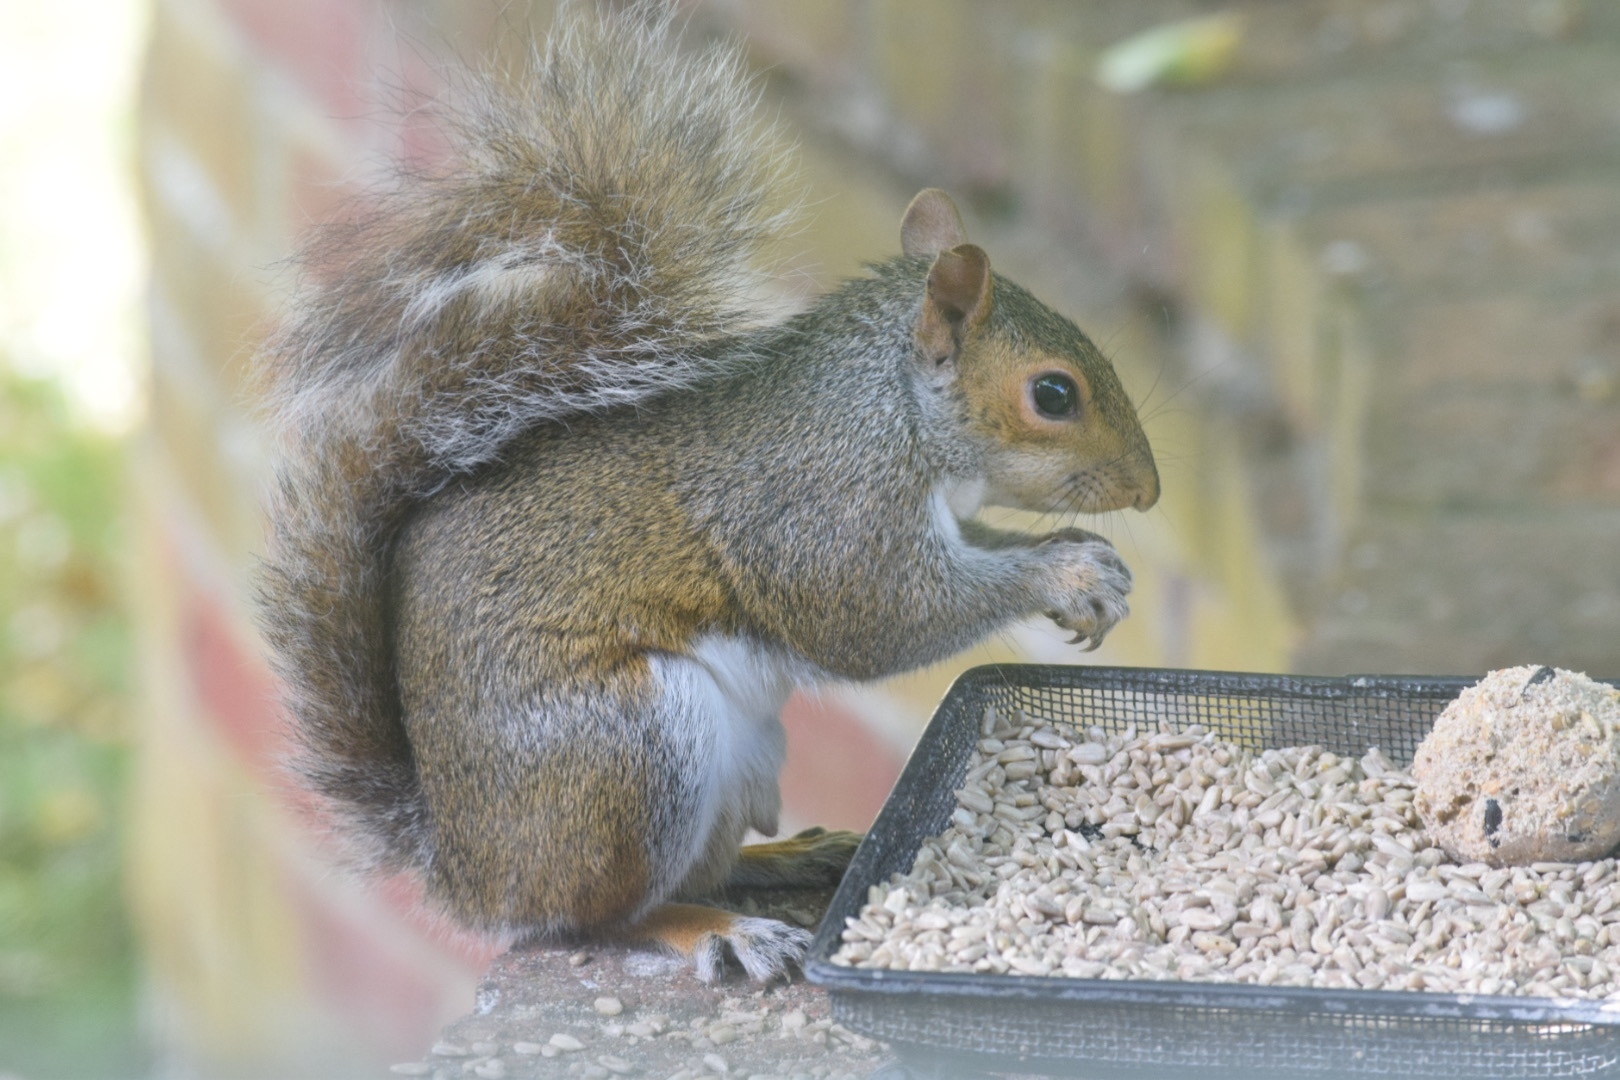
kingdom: Animalia
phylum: Chordata
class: Mammalia
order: Rodentia
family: Sciuridae
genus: Sciurus
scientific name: Sciurus carolinensis
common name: Eastern gray squirrel
